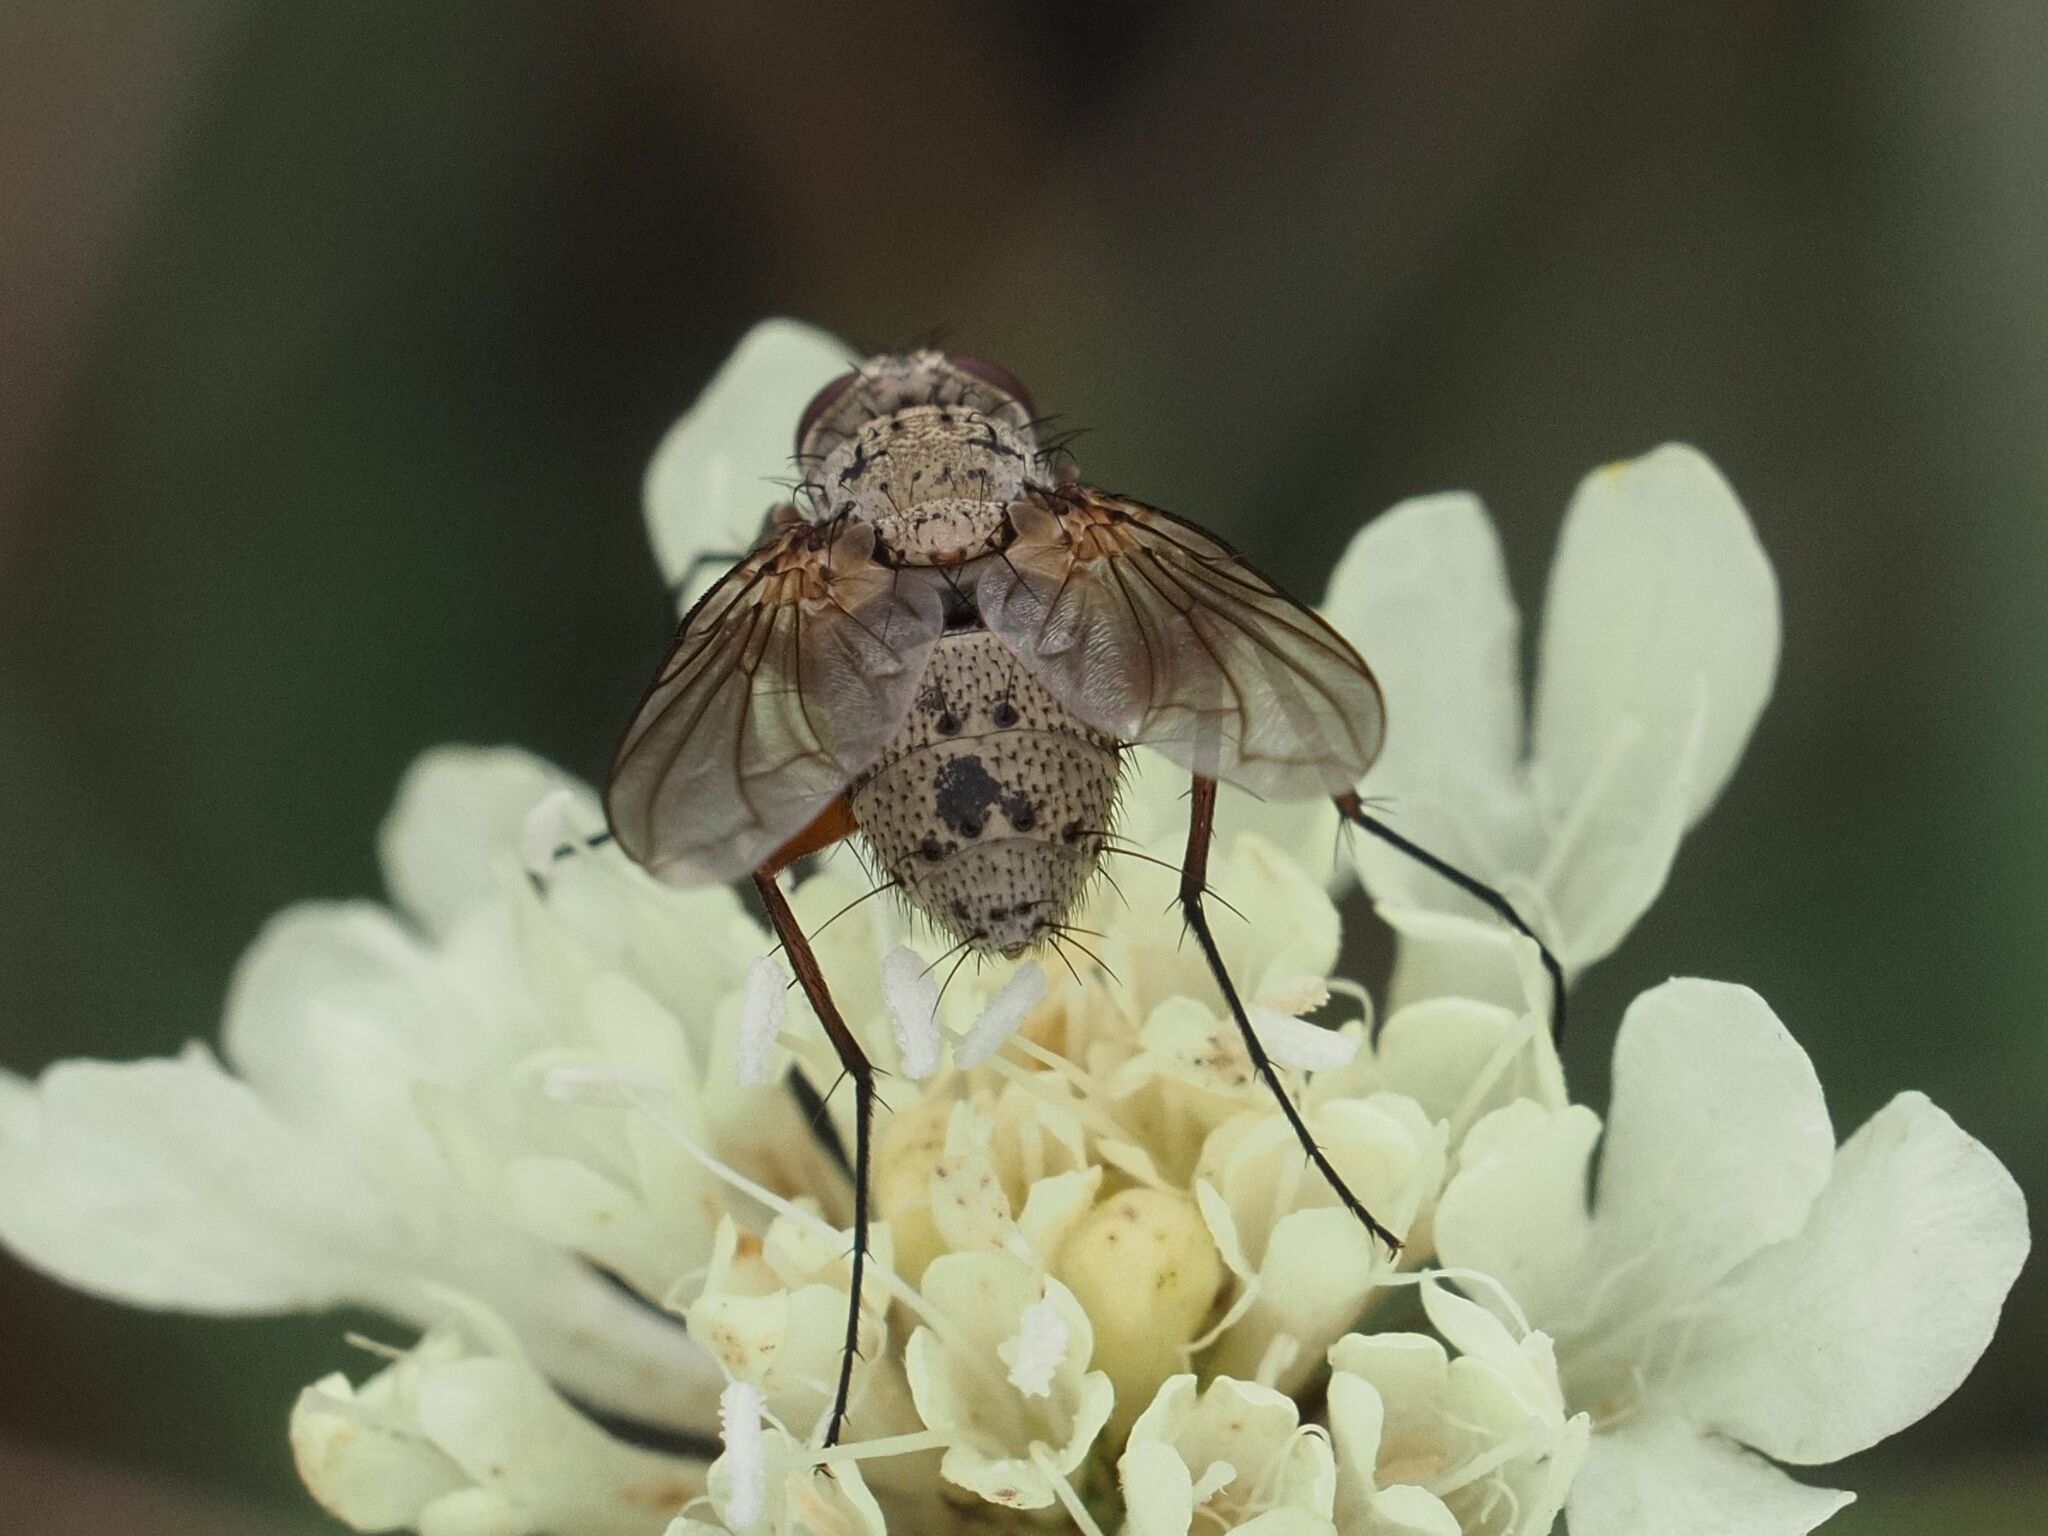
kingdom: Animalia
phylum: Arthropoda
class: Insecta
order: Diptera
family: Tachinidae
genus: Prosena
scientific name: Prosena siberita
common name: Parasitic fly
